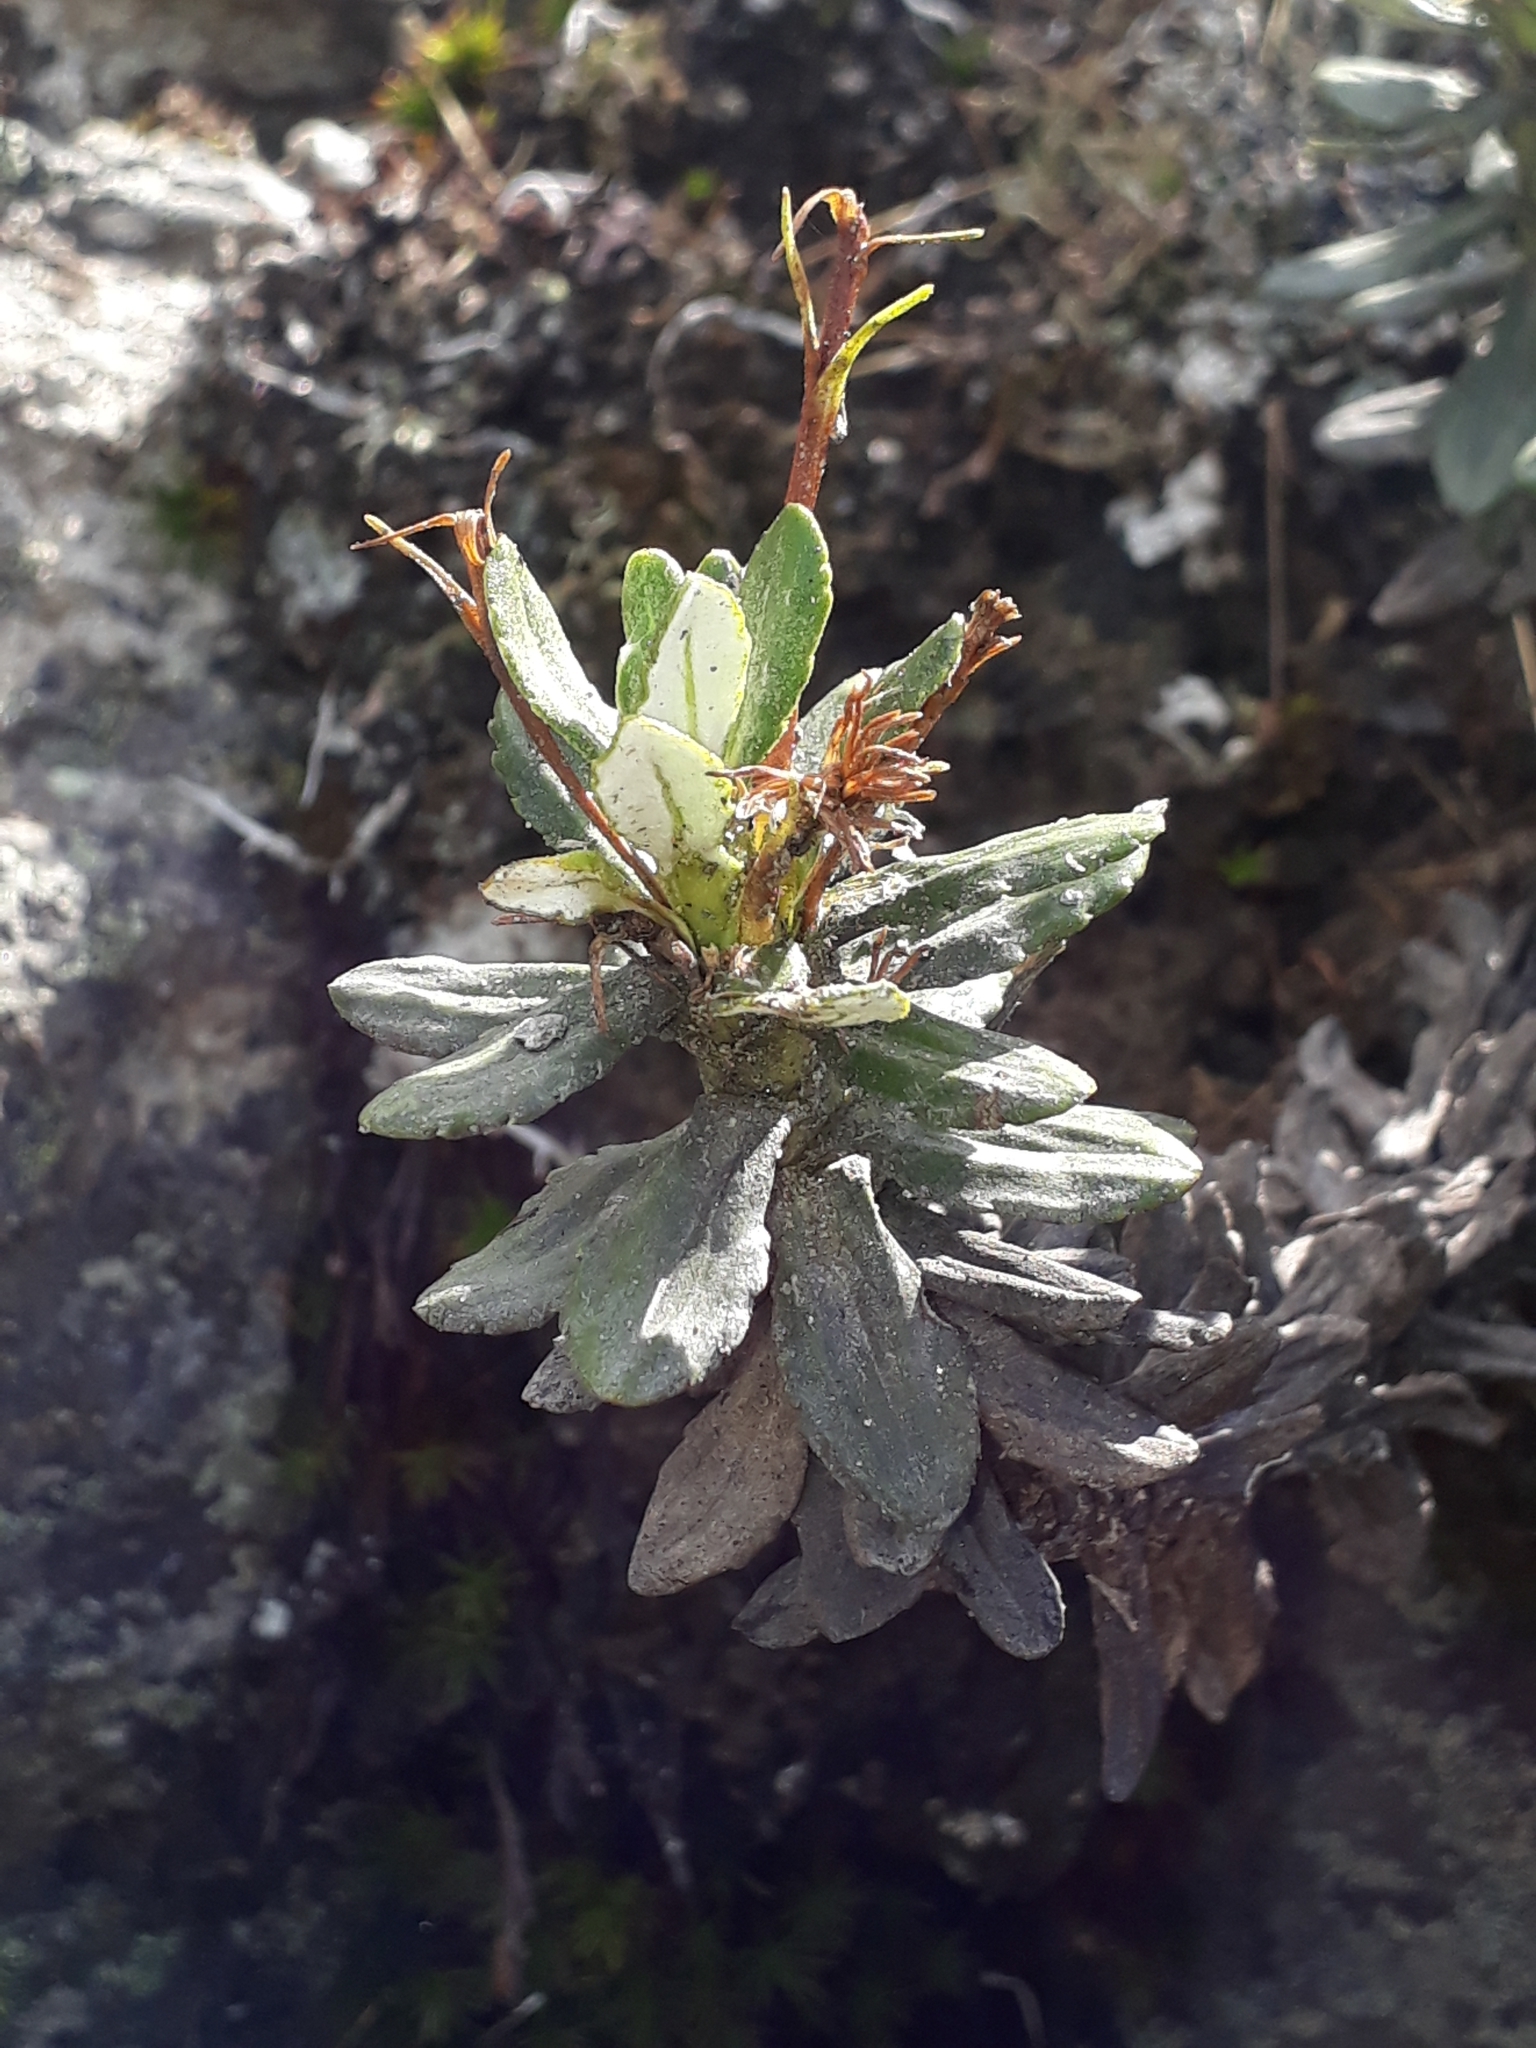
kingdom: Plantae
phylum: Tracheophyta
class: Magnoliopsida
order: Asterales
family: Asteraceae
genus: Celmisia
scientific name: Celmisia brevifolia
